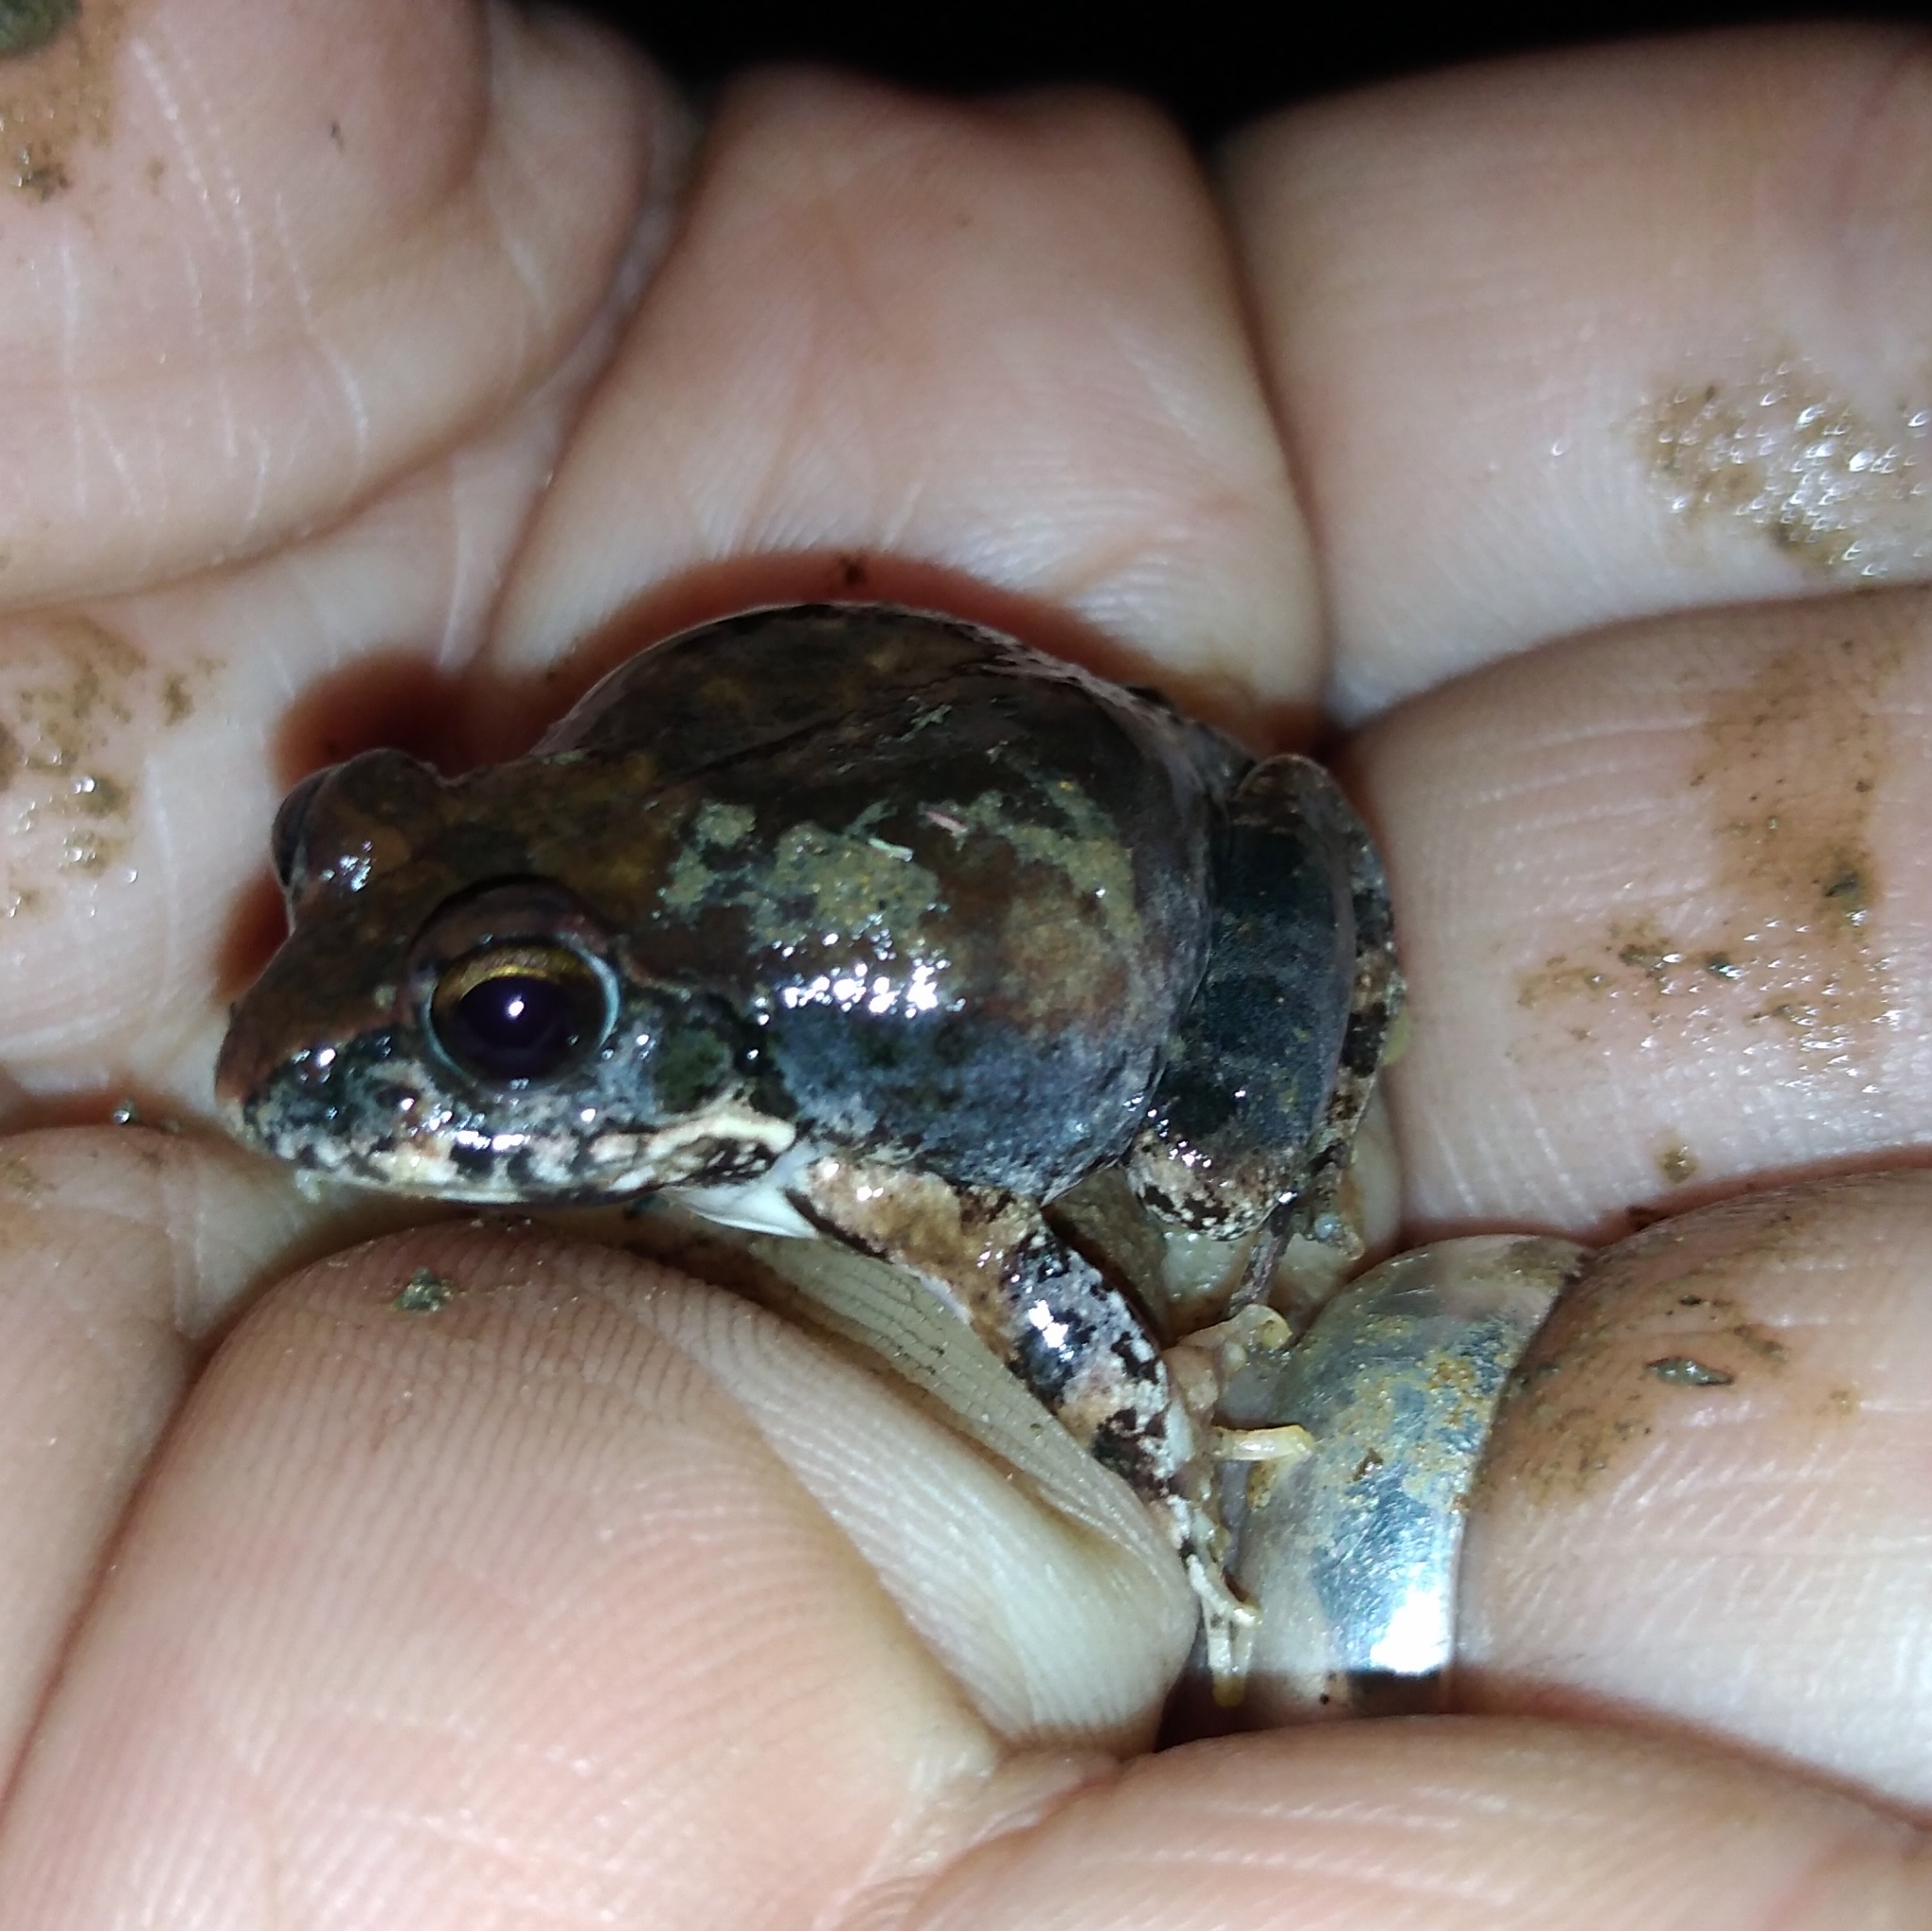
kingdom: Animalia
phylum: Chordata
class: Amphibia
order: Anura
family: Pyxicephalidae
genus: Tomopterna
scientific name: Tomopterna natalensis
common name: Natal sand frog
